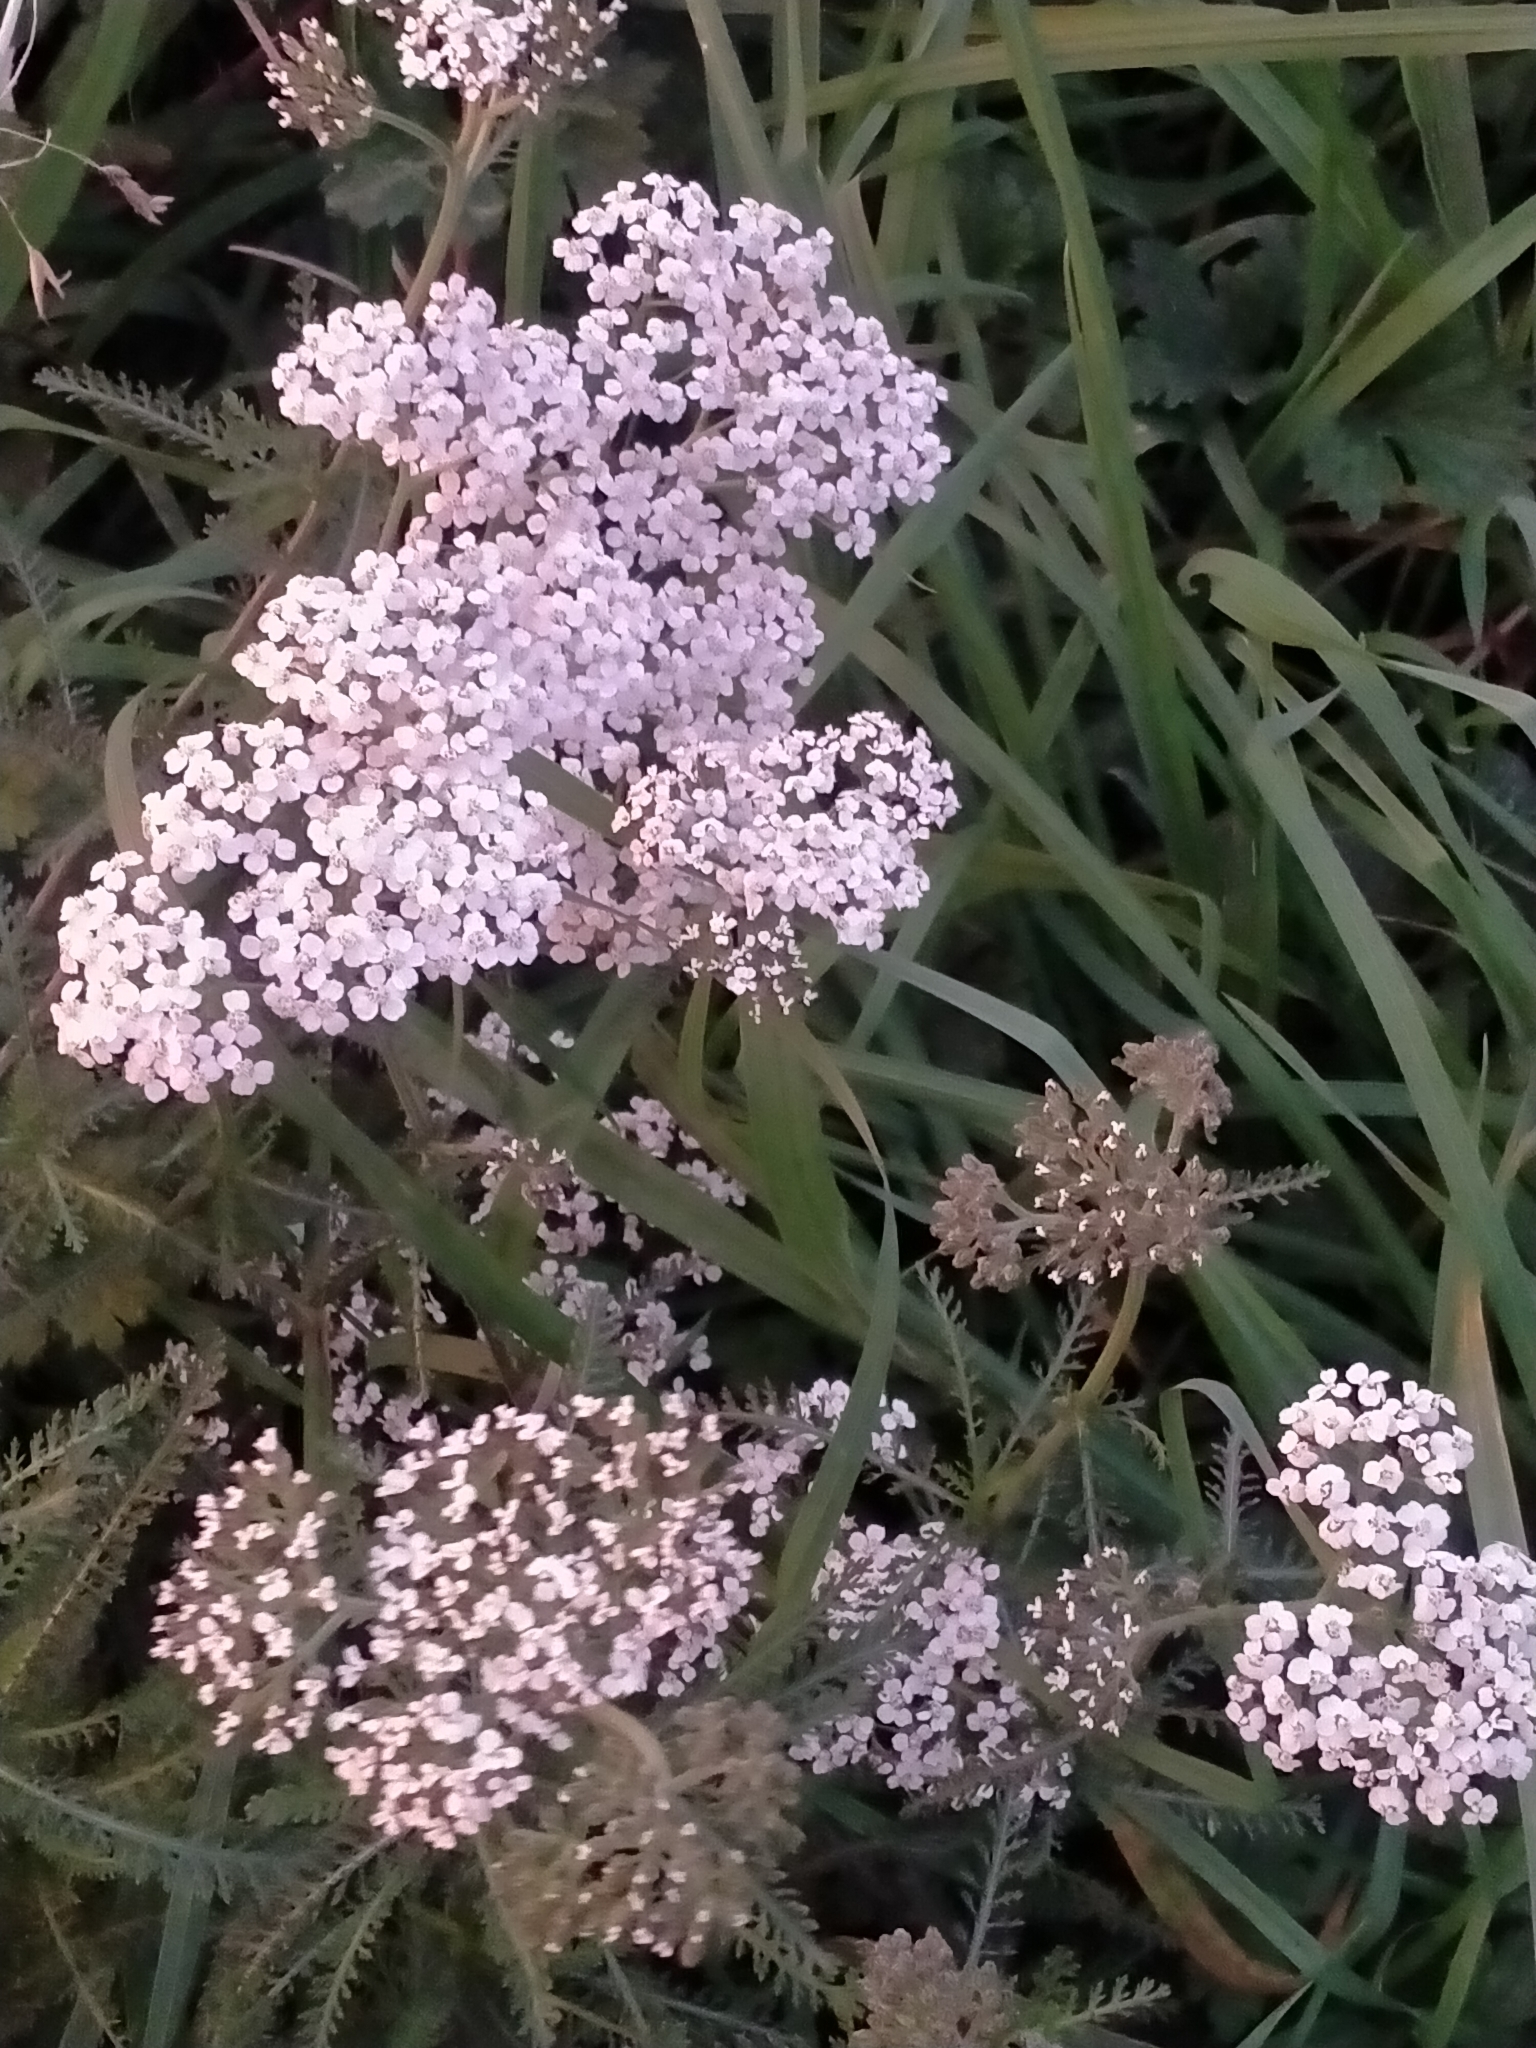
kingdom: Plantae
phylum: Tracheophyta
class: Magnoliopsida
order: Asterales
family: Asteraceae
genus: Achillea
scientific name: Achillea millefolium
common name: Yarrow
